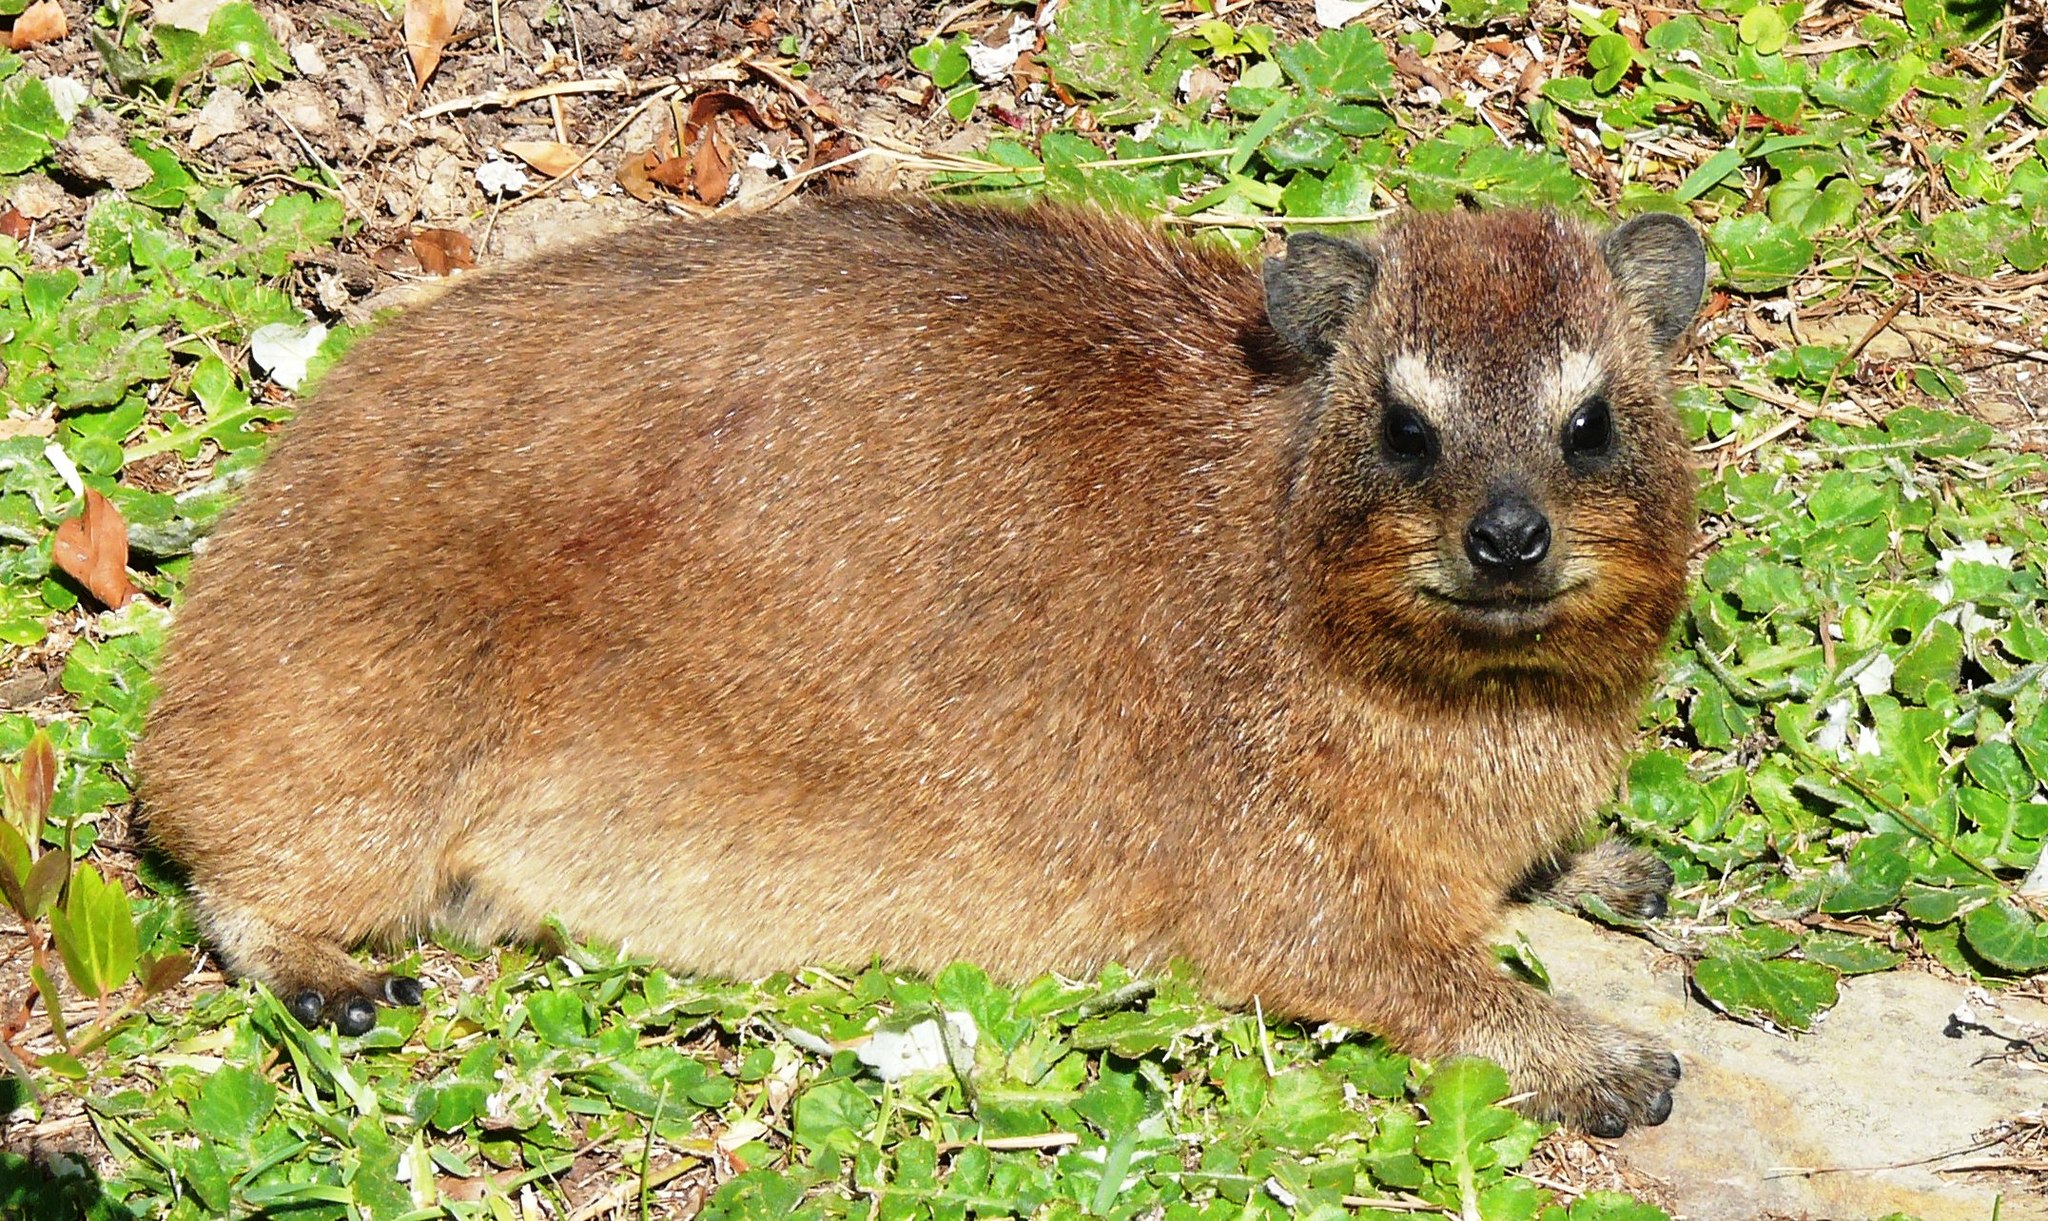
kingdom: Animalia
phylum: Chordata
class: Mammalia
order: Hyracoidea
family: Procaviidae
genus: Procavia
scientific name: Procavia capensis
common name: Rock hyrax
